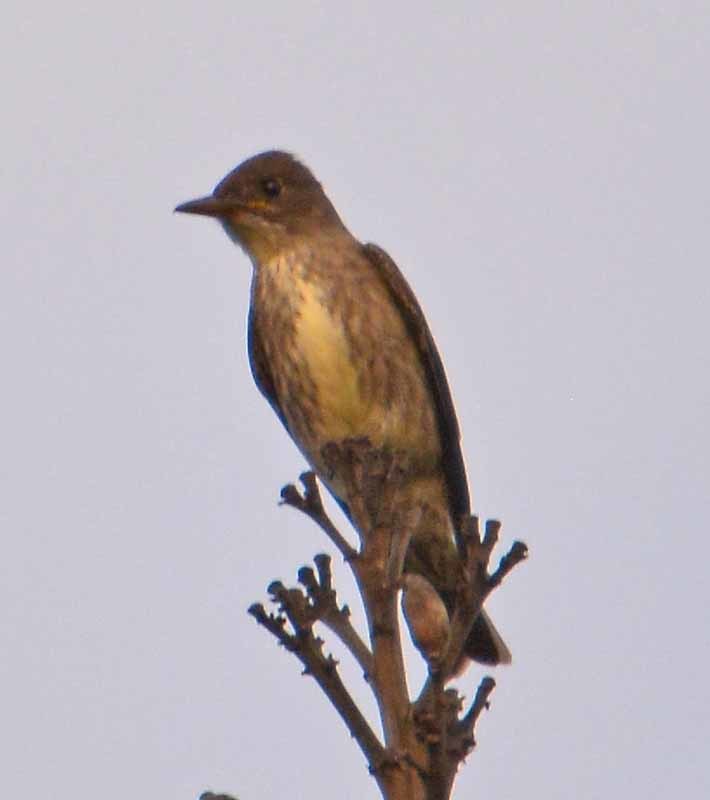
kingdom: Animalia
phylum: Chordata
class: Aves
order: Passeriformes
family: Tyrannidae
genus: Contopus
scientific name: Contopus cooperi
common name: Olive-sided flycatcher
